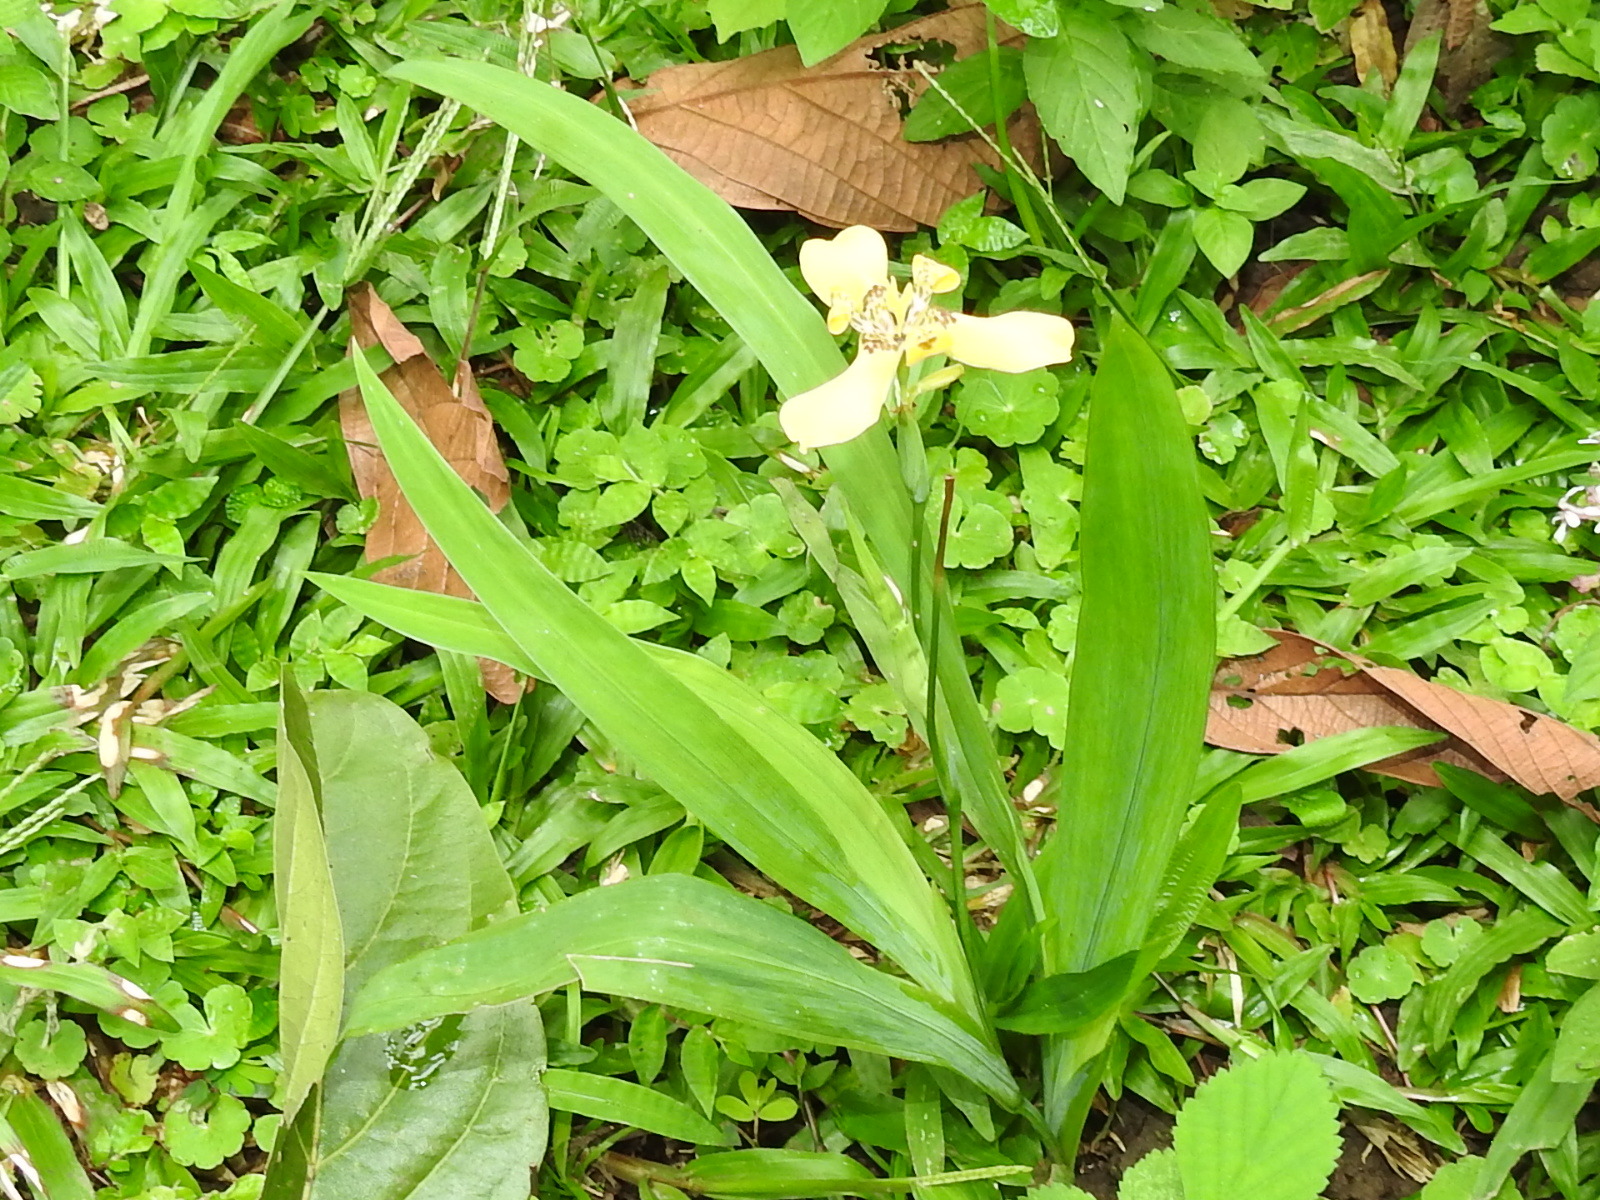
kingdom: Plantae
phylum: Tracheophyta
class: Liliopsida
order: Asparagales
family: Iridaceae
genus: Trimezia
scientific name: Trimezia steyermarkii
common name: Trimezia
